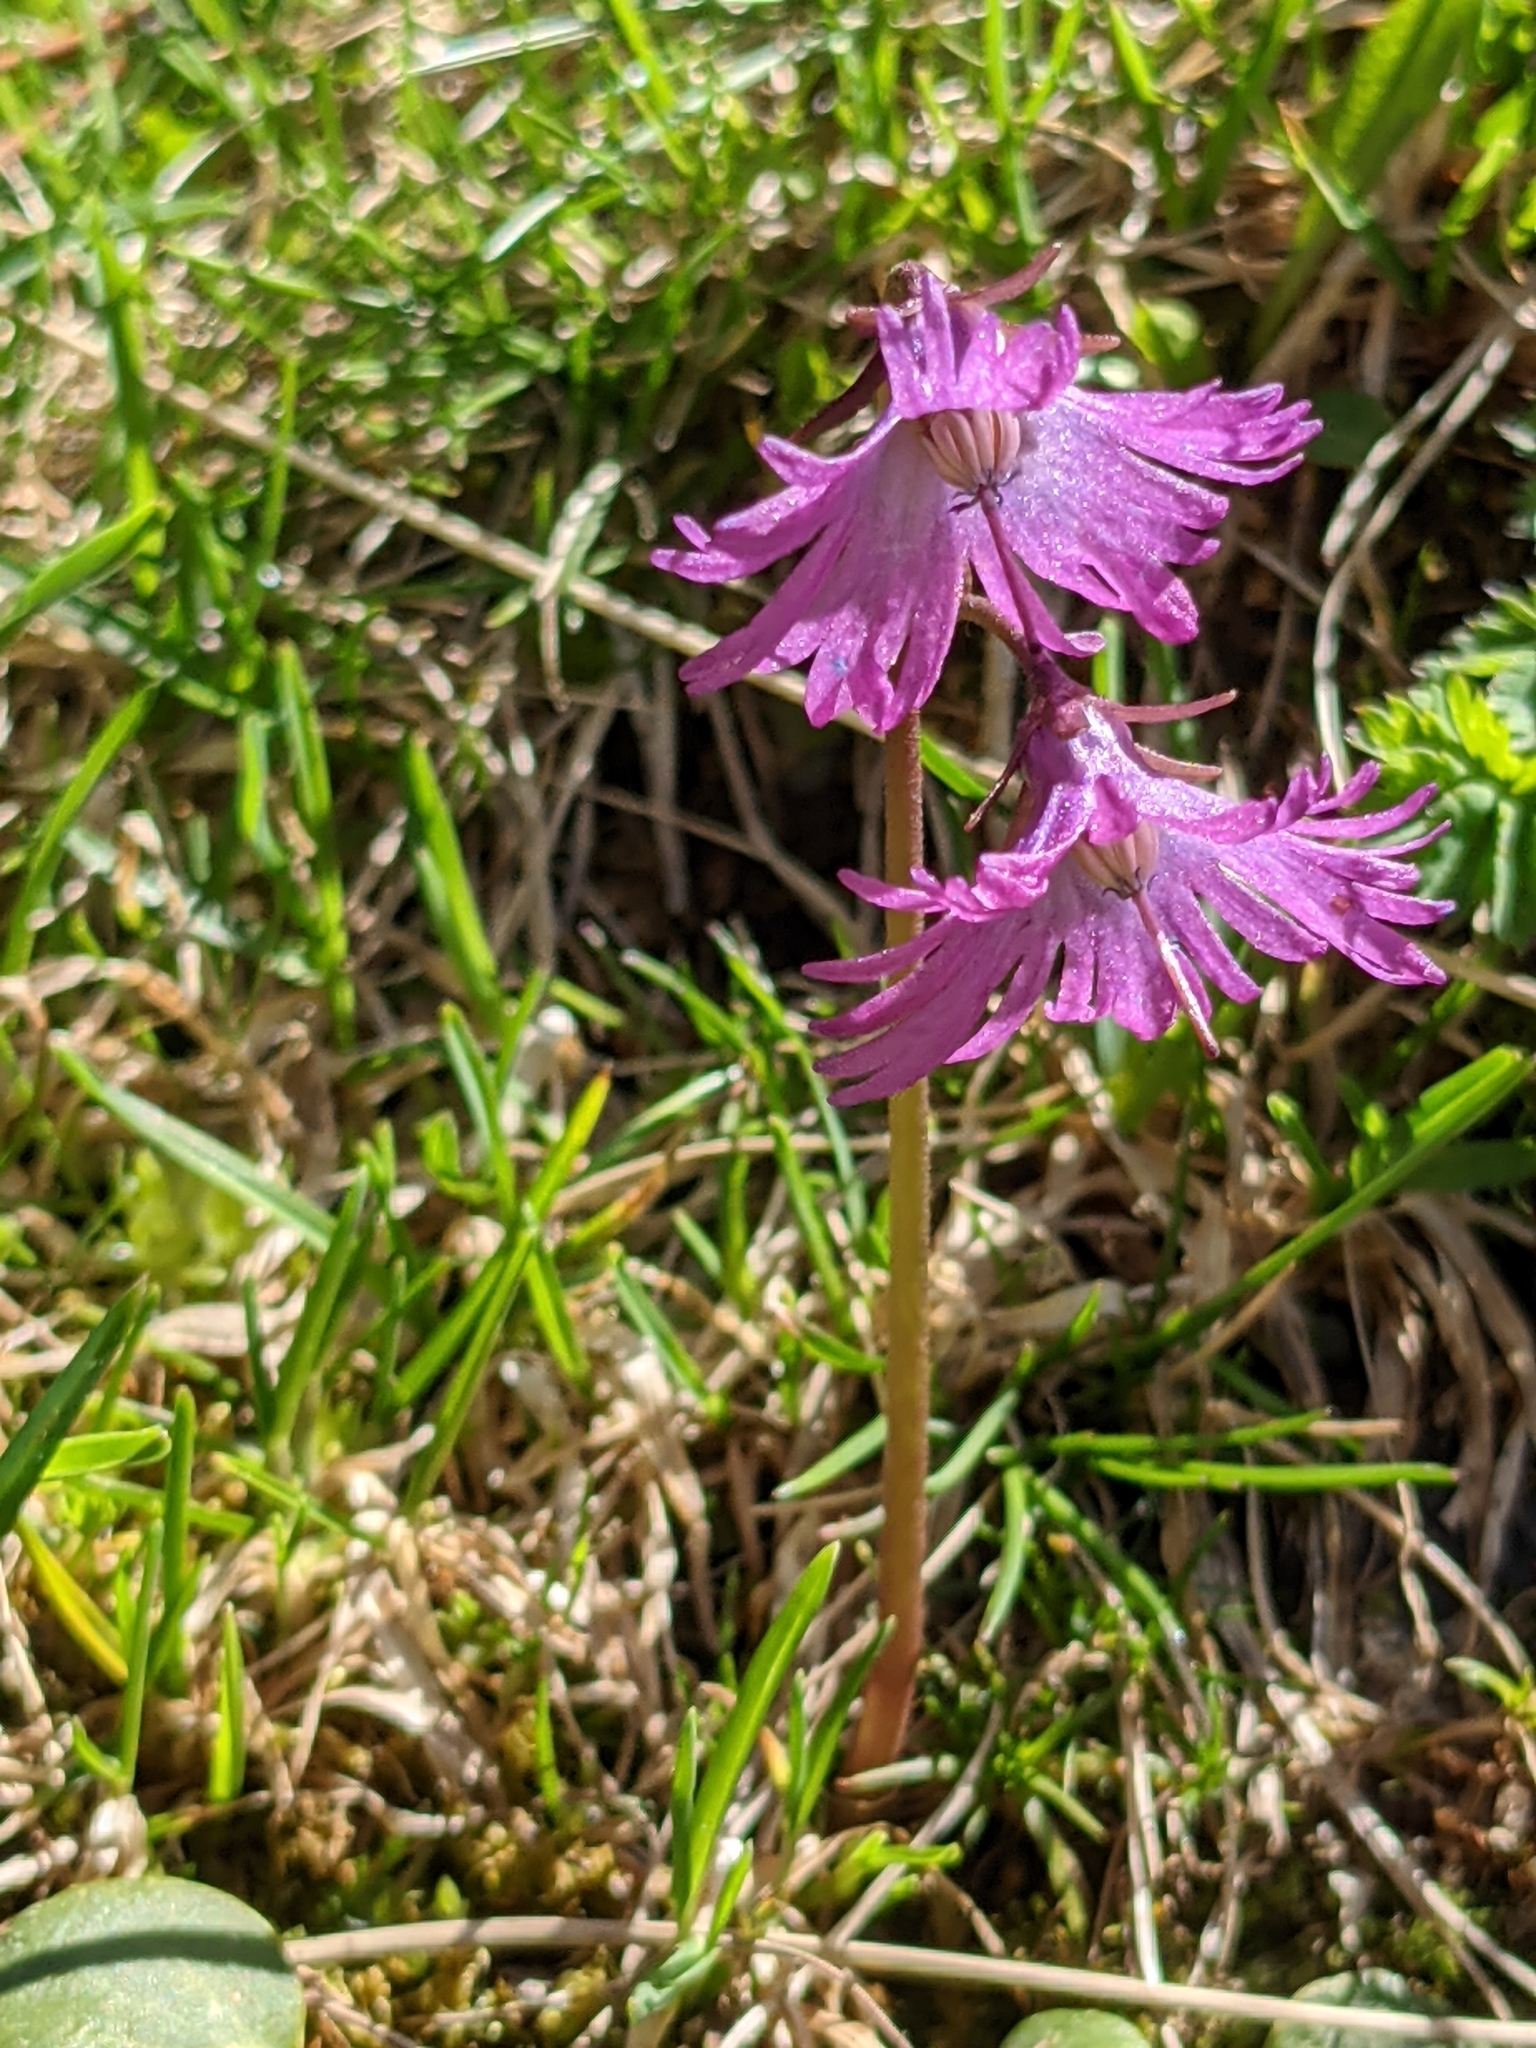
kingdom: Plantae
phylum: Tracheophyta
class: Magnoliopsida
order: Ericales
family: Primulaceae
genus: Soldanella
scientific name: Soldanella alpina
